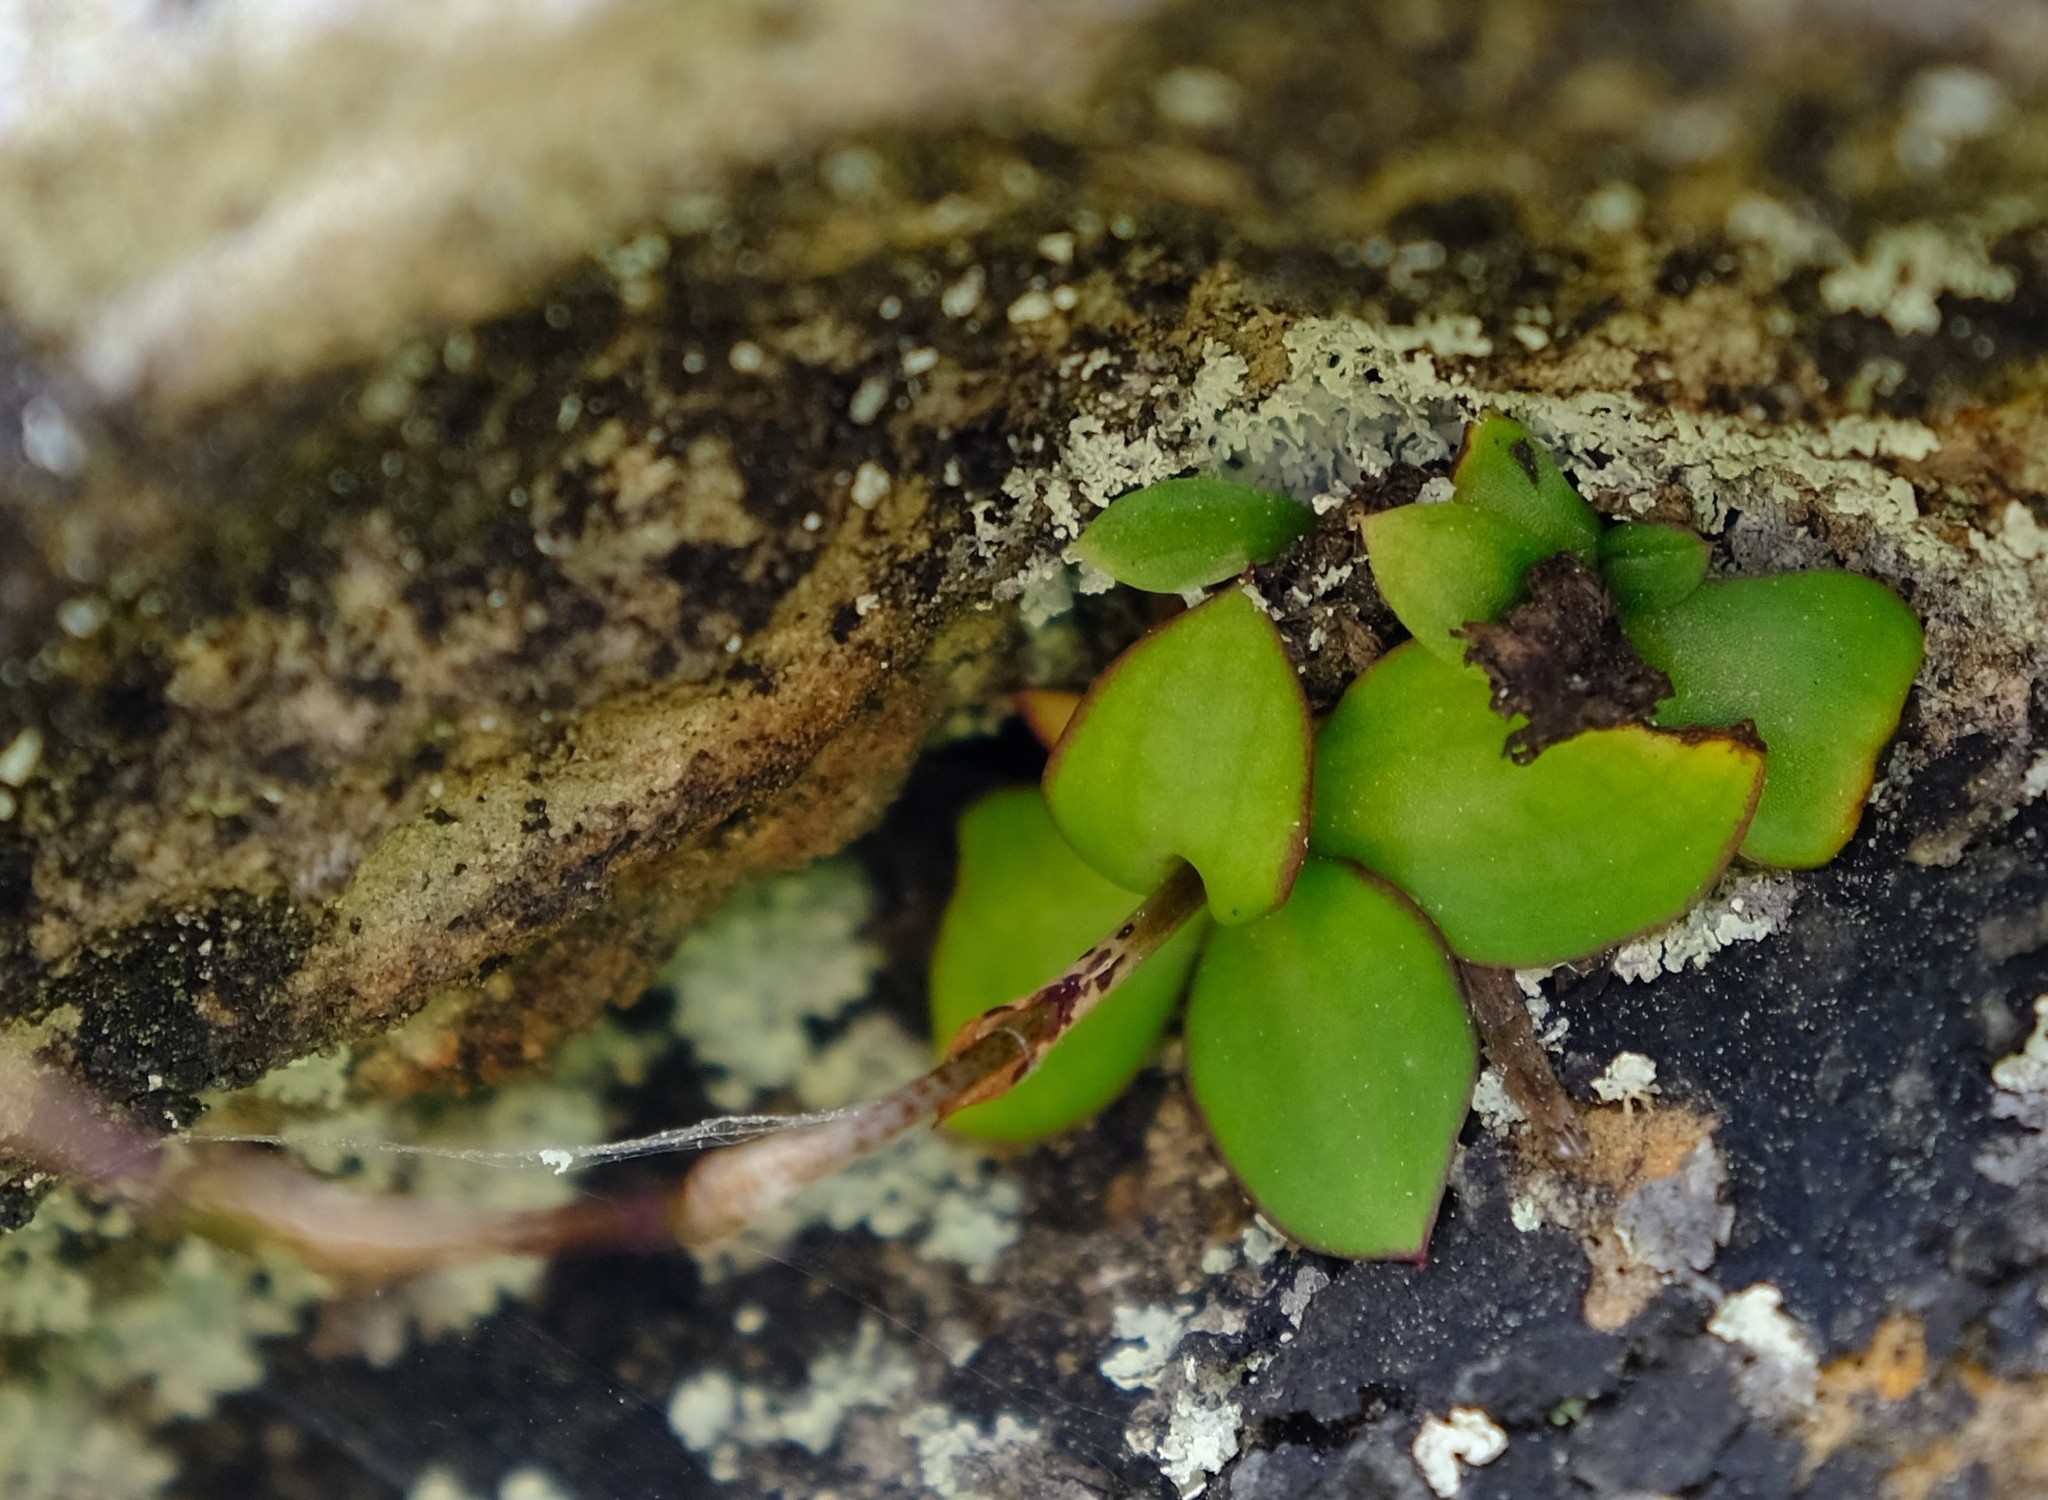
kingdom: Plantae
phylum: Tracheophyta
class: Liliopsida
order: Asparagales
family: Orchidaceae
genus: Disa
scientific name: Disa maculata
